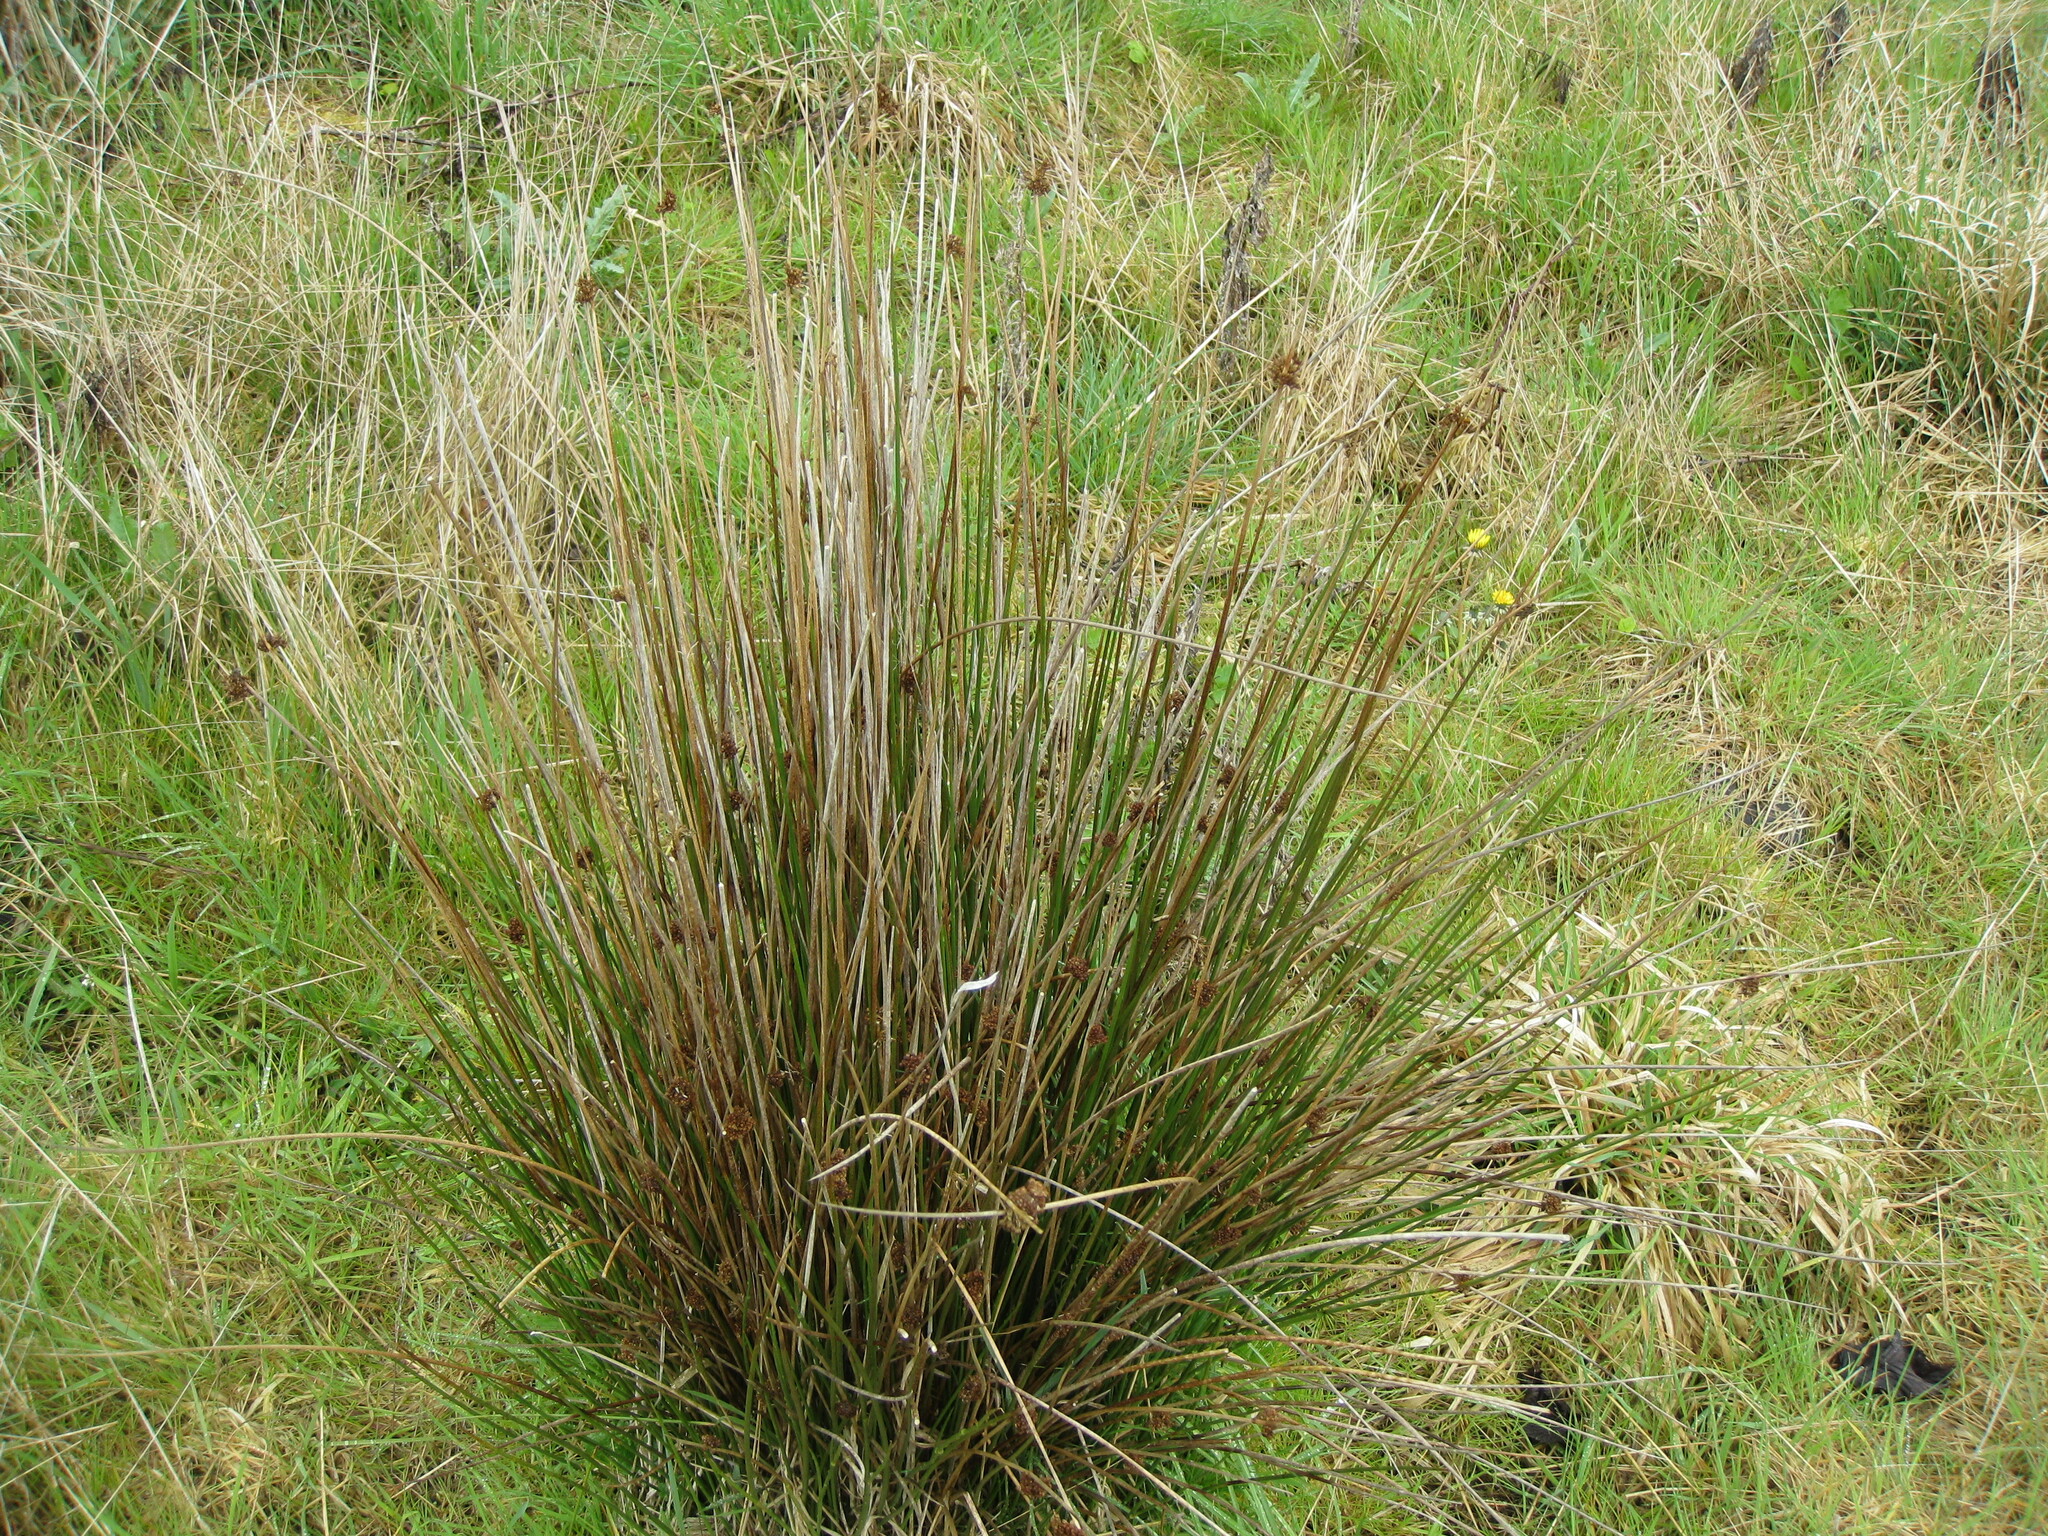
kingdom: Plantae
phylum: Tracheophyta
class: Liliopsida
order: Poales
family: Juncaceae
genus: Juncus
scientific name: Juncus effusus
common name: Soft rush
